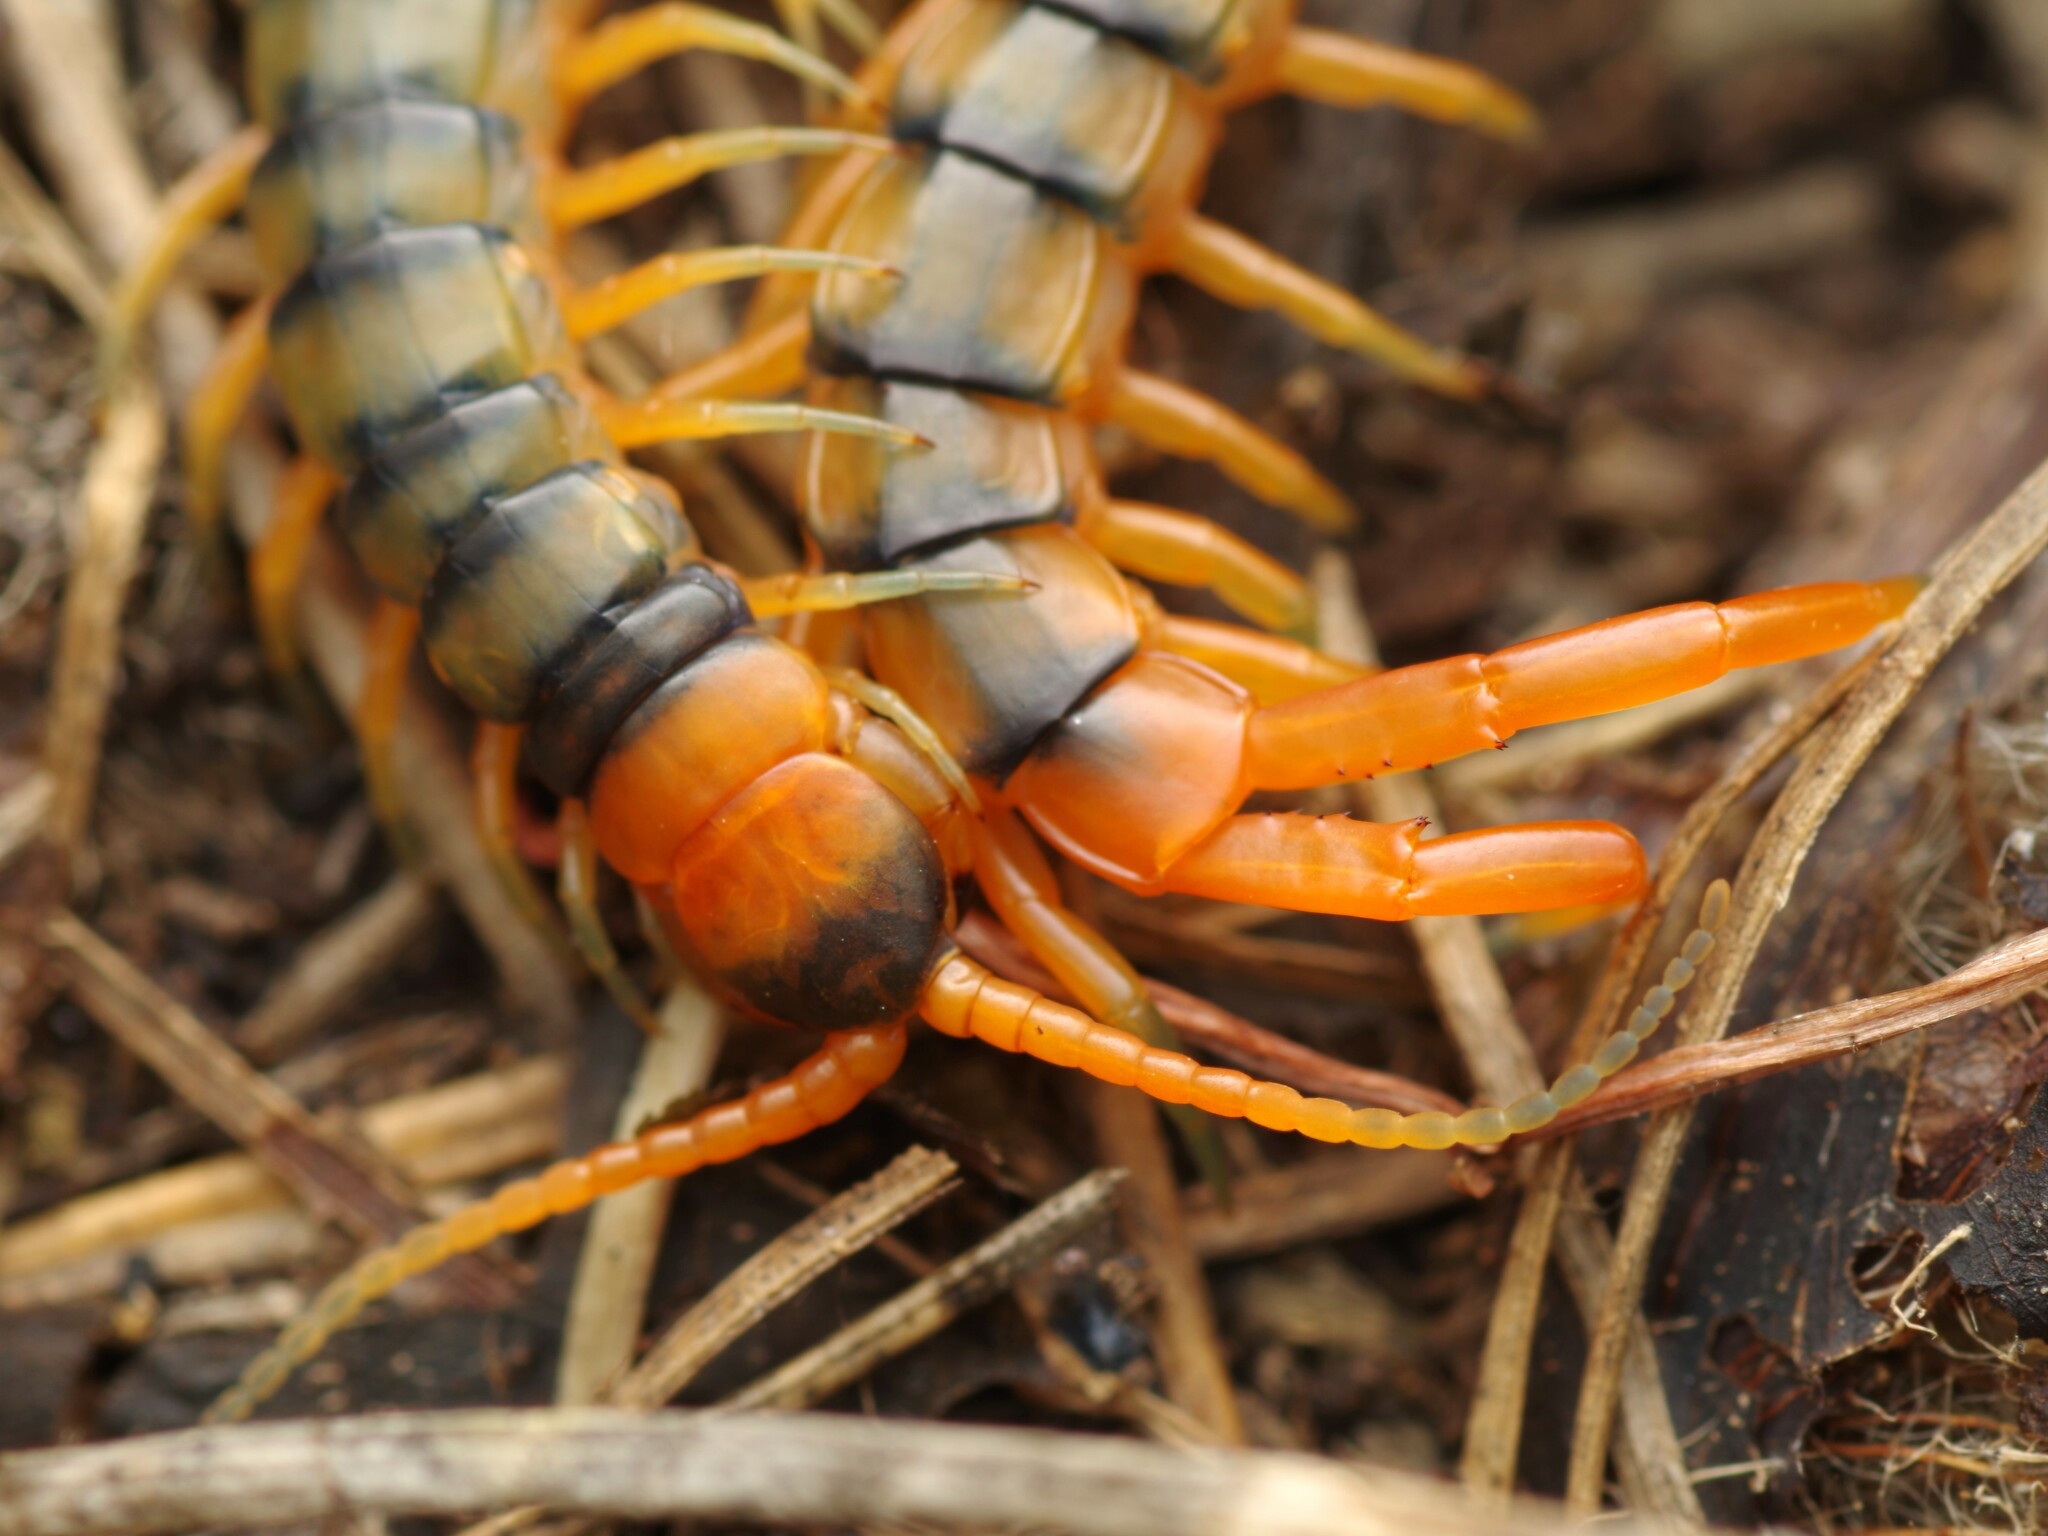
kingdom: Animalia
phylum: Arthropoda
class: Chilopoda
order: Scolopendromorpha
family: Scolopendridae
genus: Scolopendra
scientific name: Scolopendra cingulata
